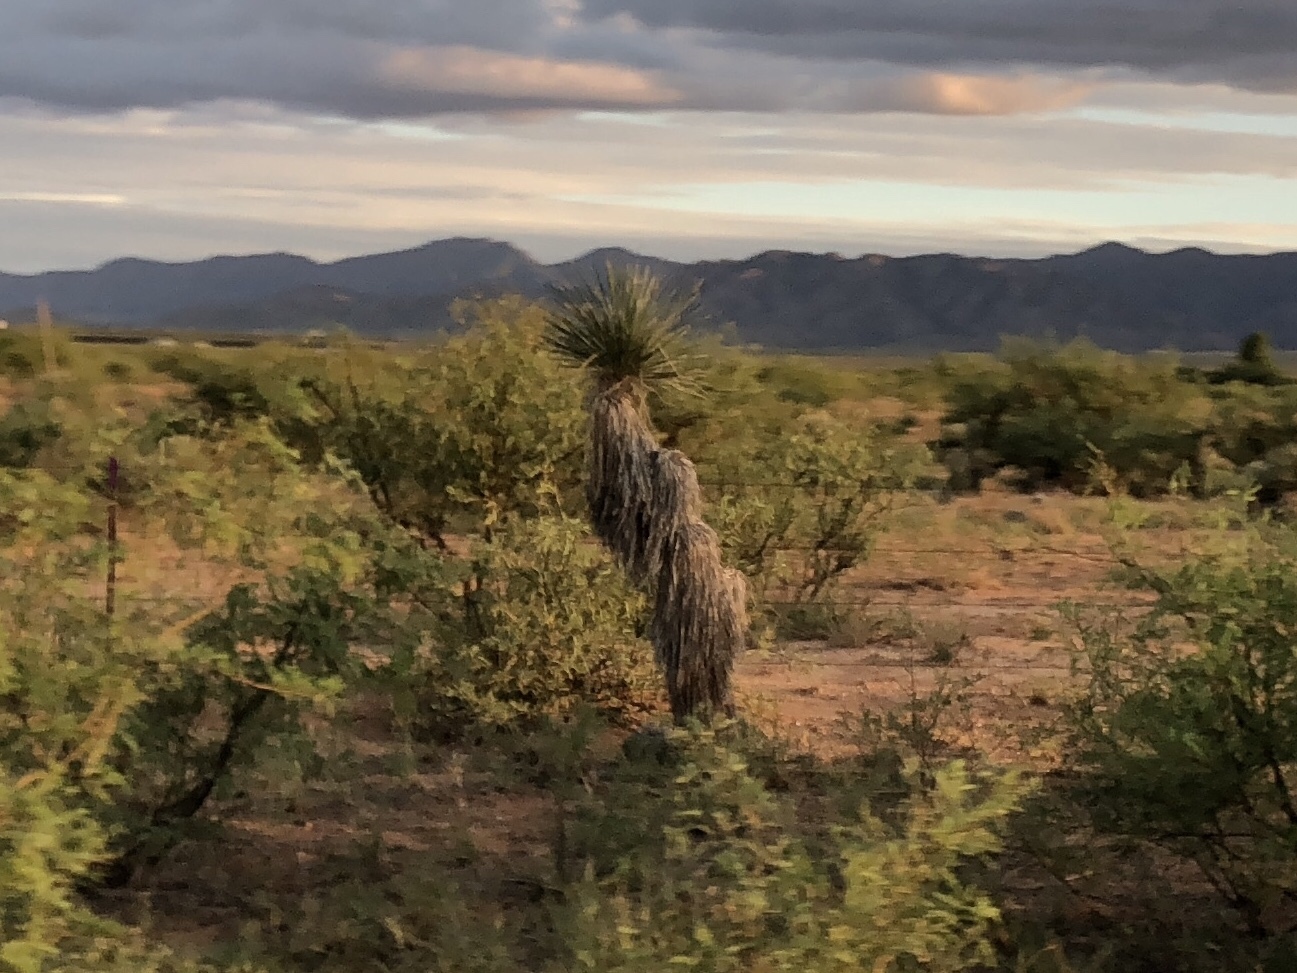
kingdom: Plantae
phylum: Tracheophyta
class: Liliopsida
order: Asparagales
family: Asparagaceae
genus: Yucca
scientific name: Yucca elata
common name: Palmella
